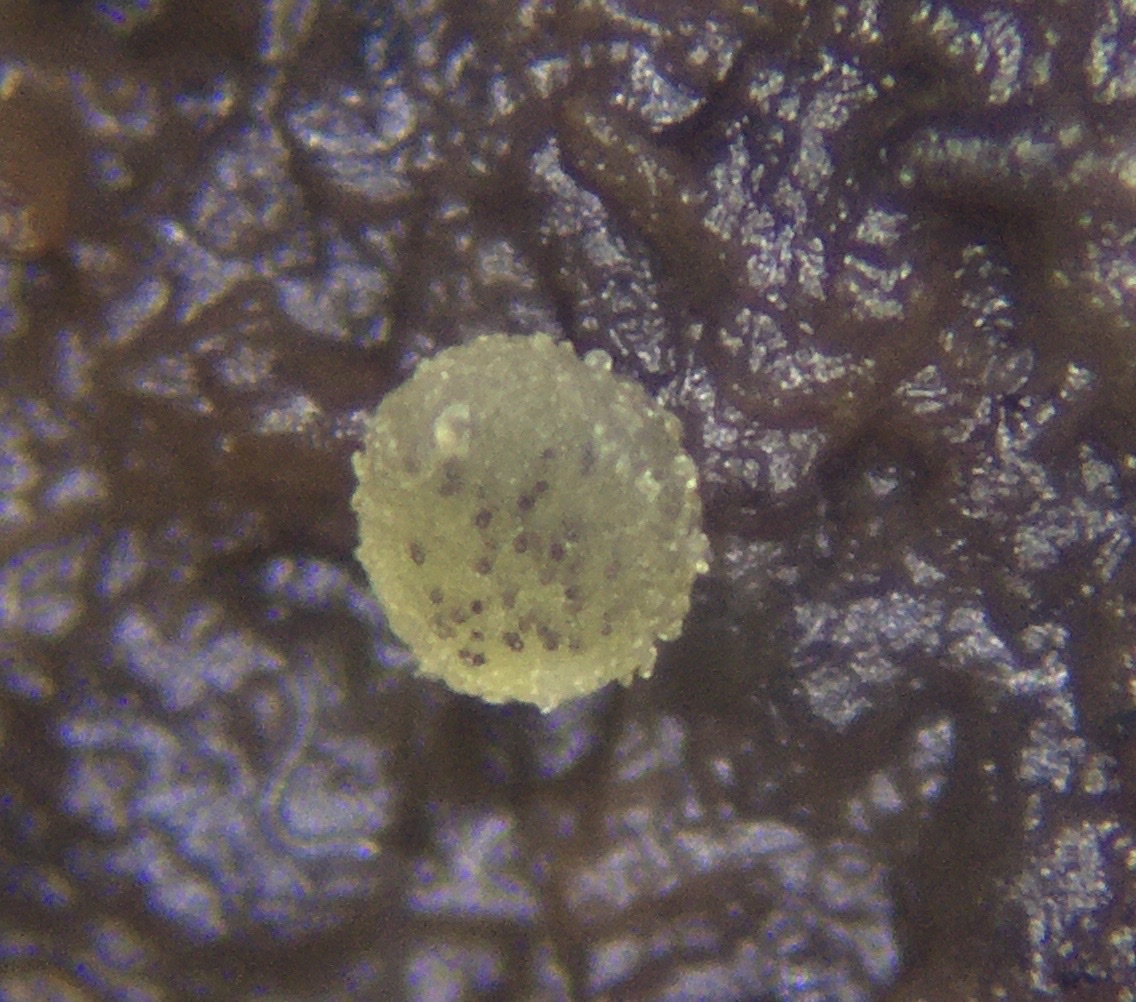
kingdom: Fungi
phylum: Ascomycota
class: Pezizomycetes
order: Pezizales
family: Ascobolaceae
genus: Ascobolus
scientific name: Ascobolus crenulatus
